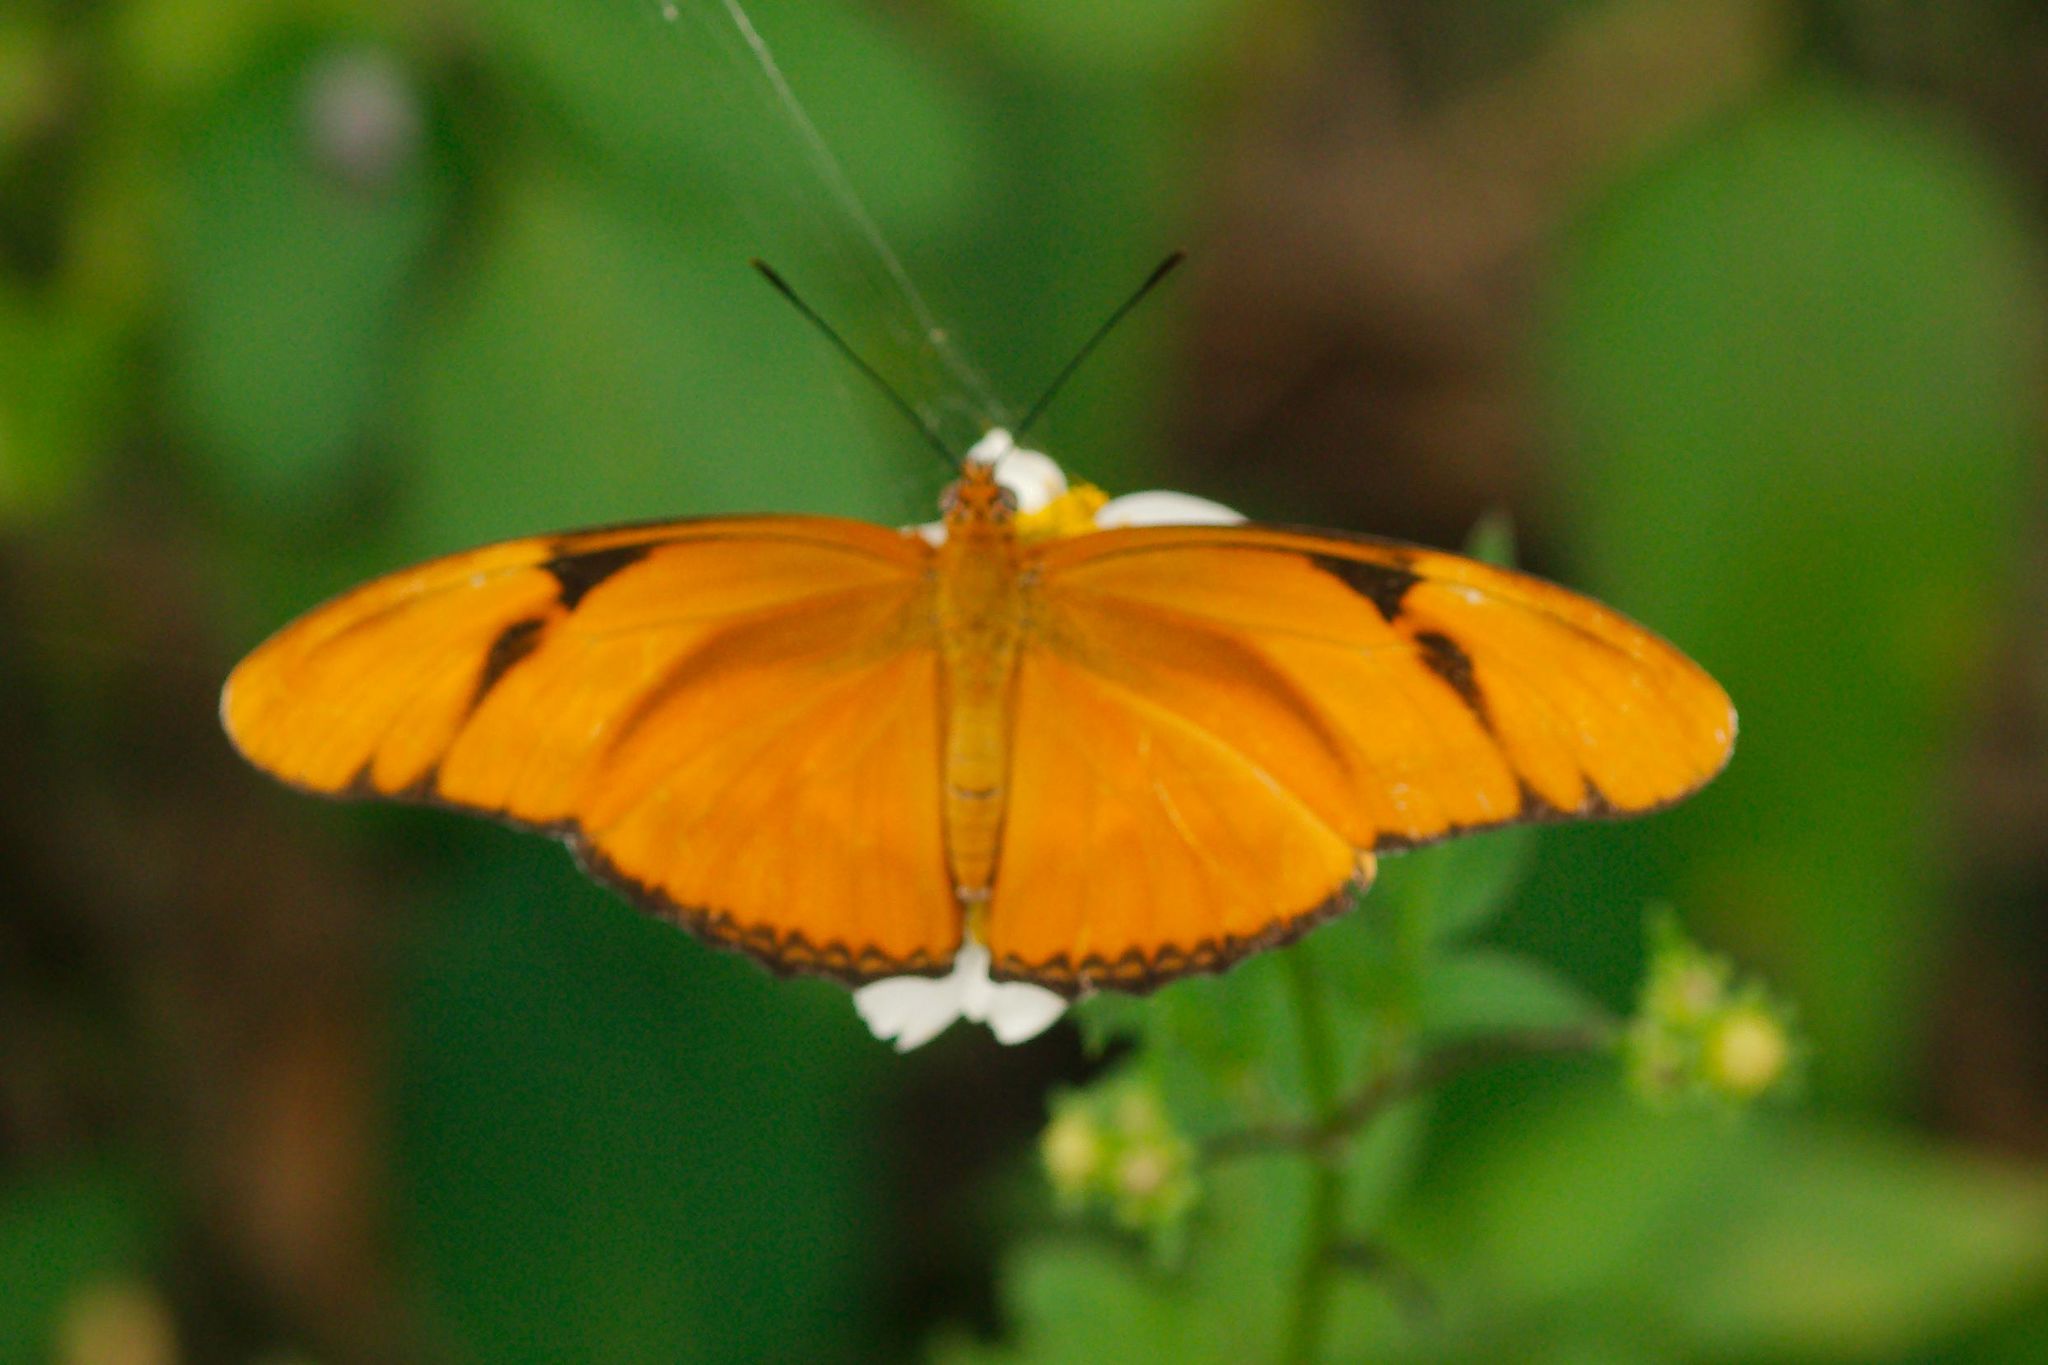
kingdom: Animalia
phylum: Arthropoda
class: Insecta
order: Lepidoptera
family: Nymphalidae
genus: Dryas
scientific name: Dryas iulia
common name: Flambeau
